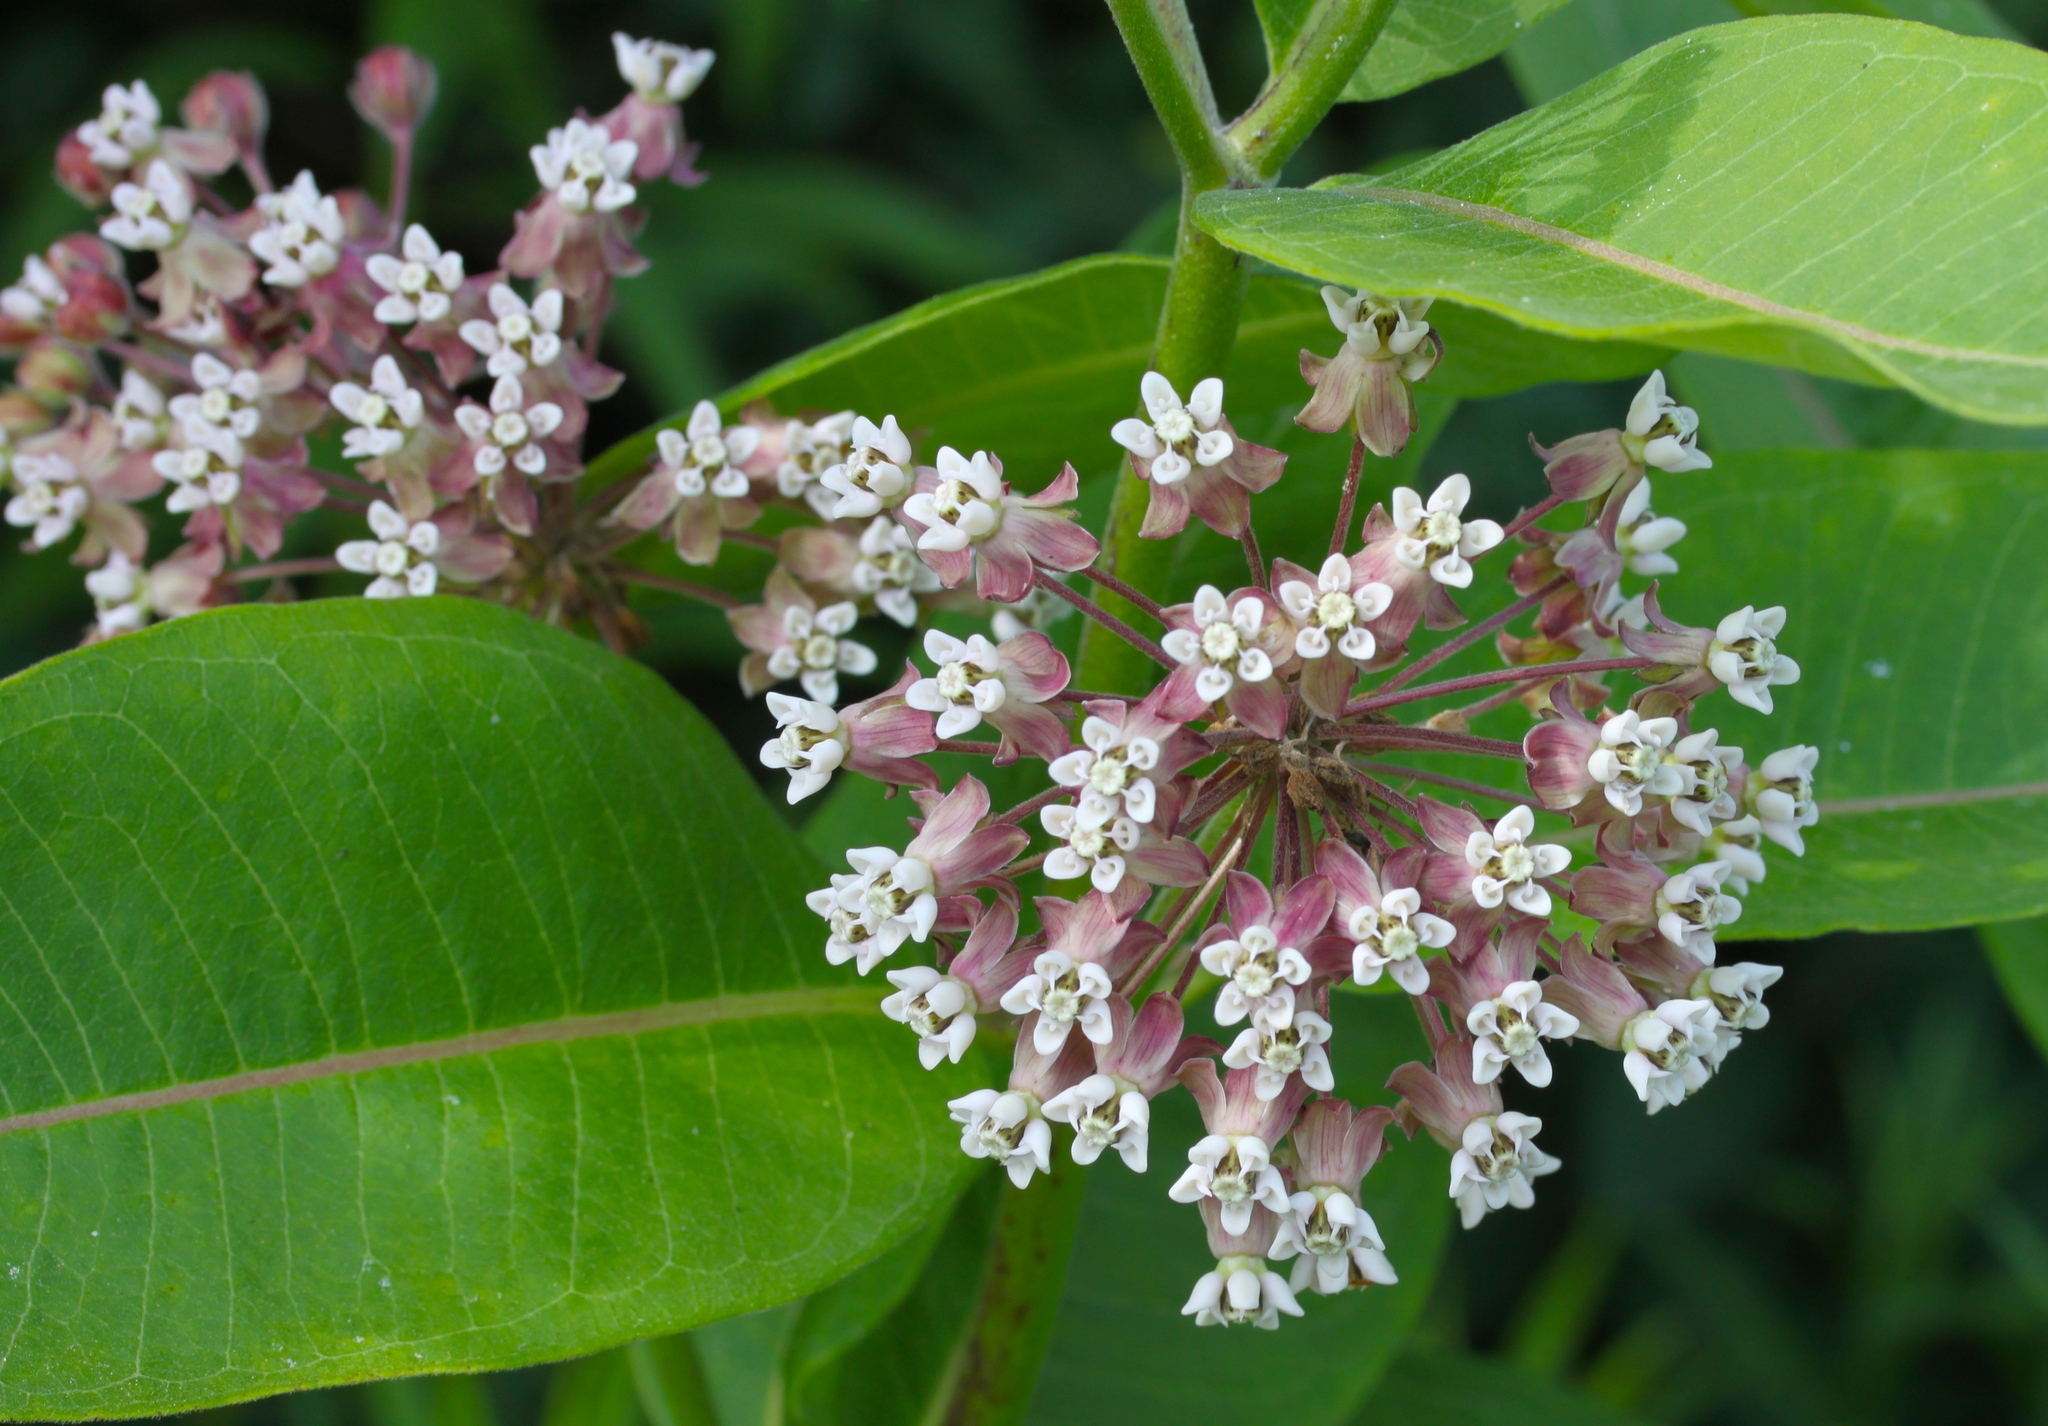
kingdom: Plantae
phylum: Tracheophyta
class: Magnoliopsida
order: Gentianales
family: Apocynaceae
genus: Asclepias
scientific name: Asclepias syriaca
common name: Common milkweed
